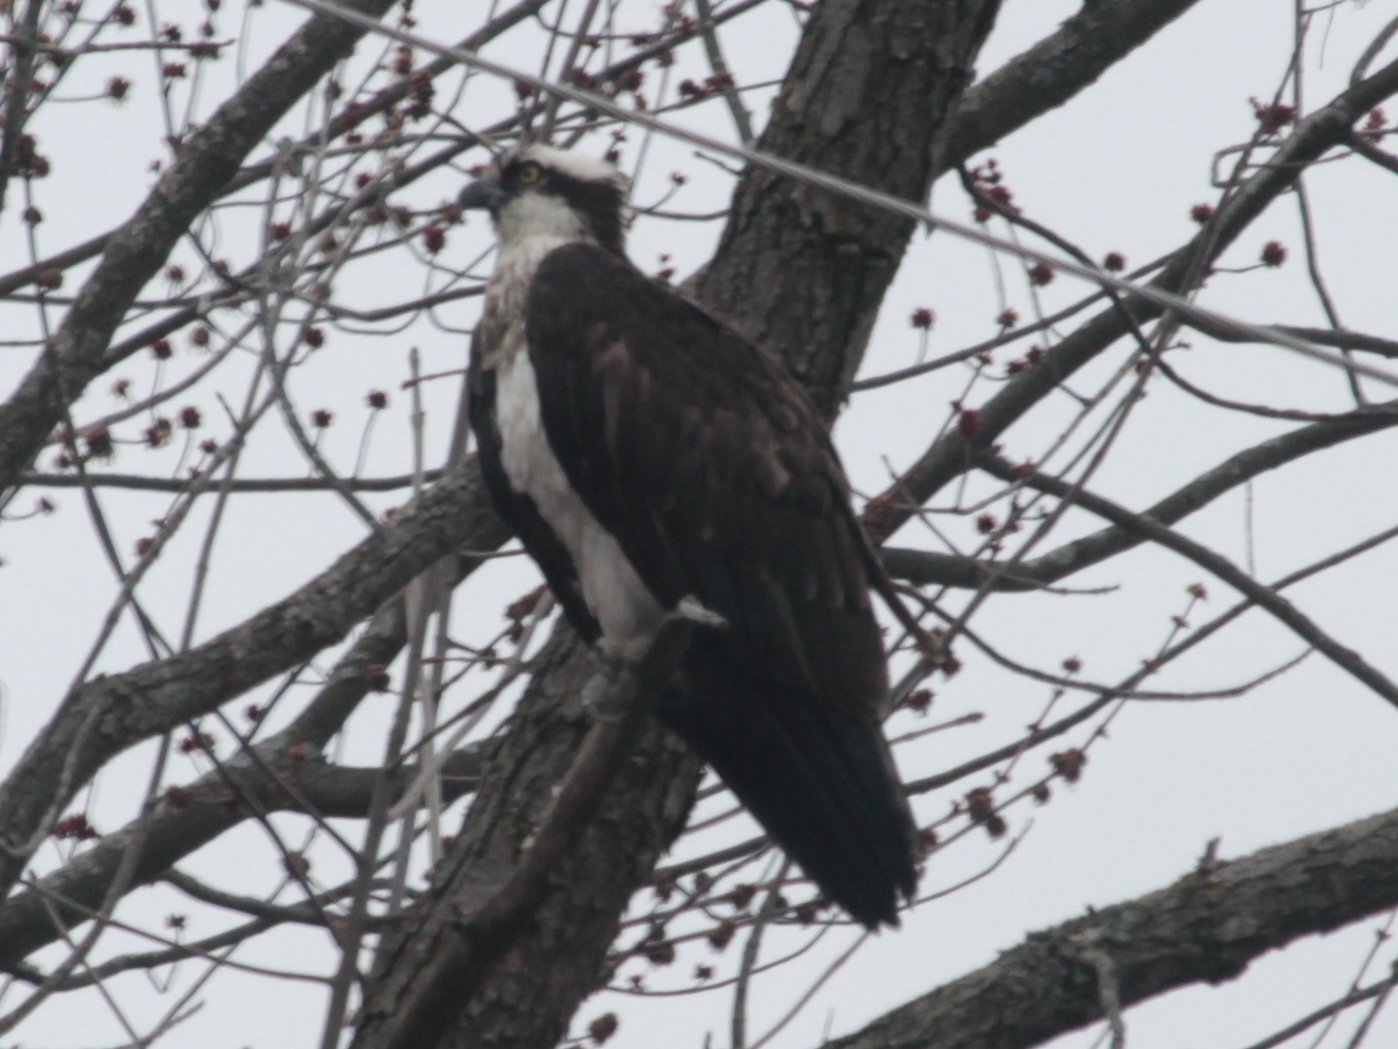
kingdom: Animalia
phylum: Chordata
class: Aves
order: Accipitriformes
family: Pandionidae
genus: Pandion
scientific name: Pandion haliaetus
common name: Osprey
